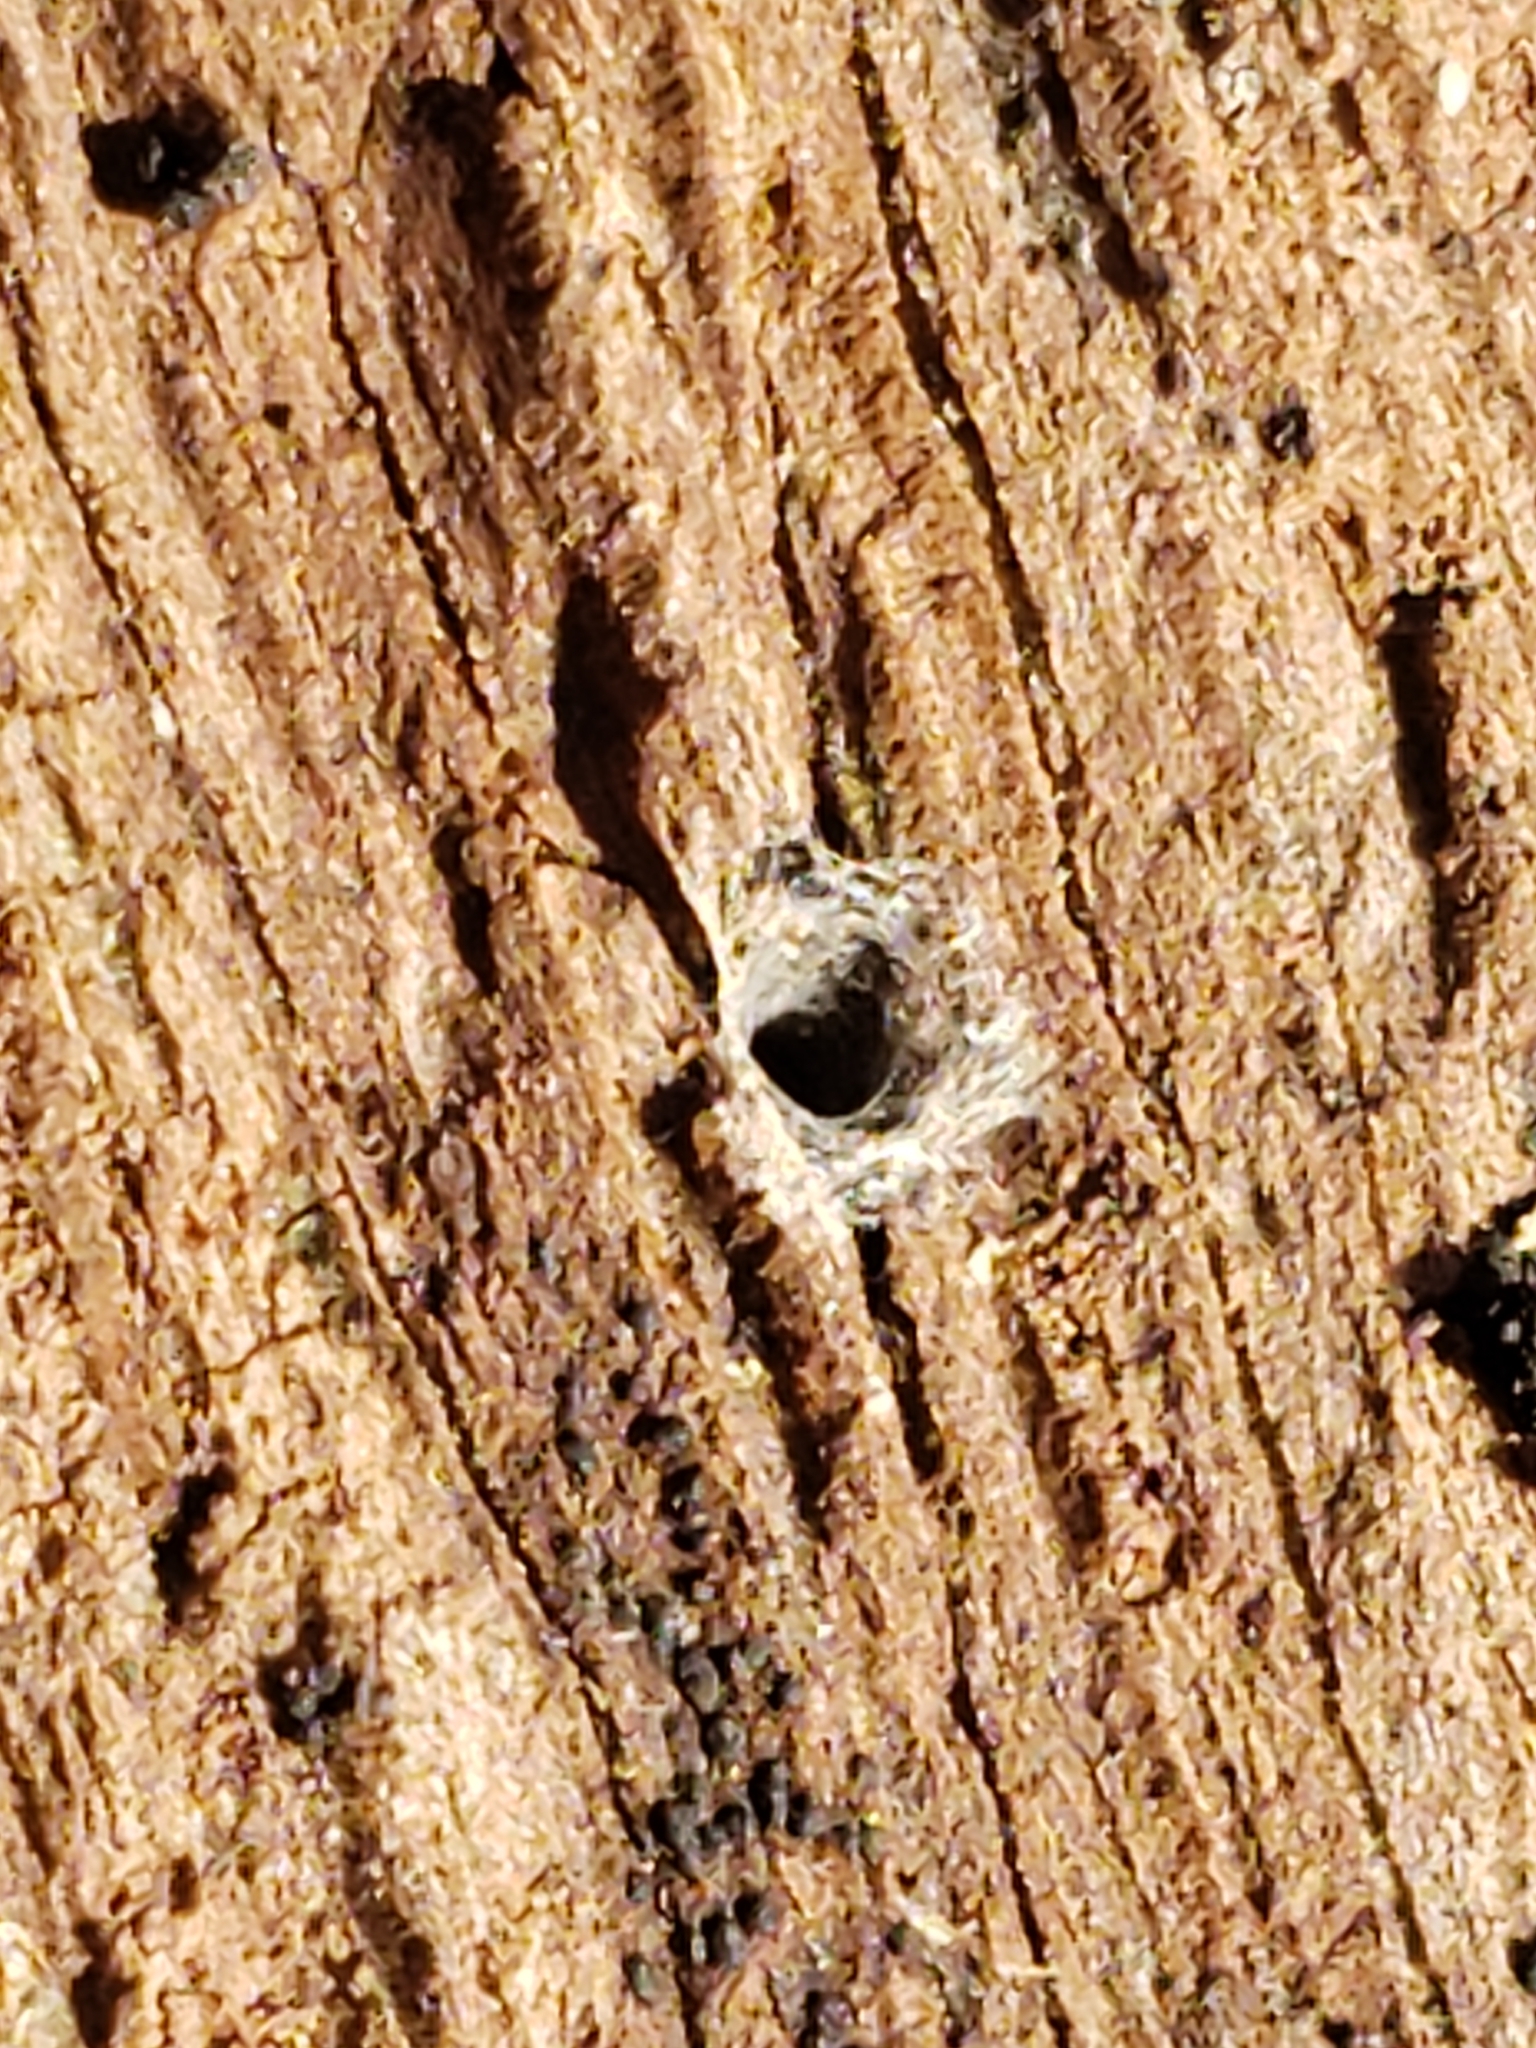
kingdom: Animalia
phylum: Arthropoda
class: Arachnida
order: Araneae
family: Segestriidae
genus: Ariadna
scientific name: Ariadna bicolor
